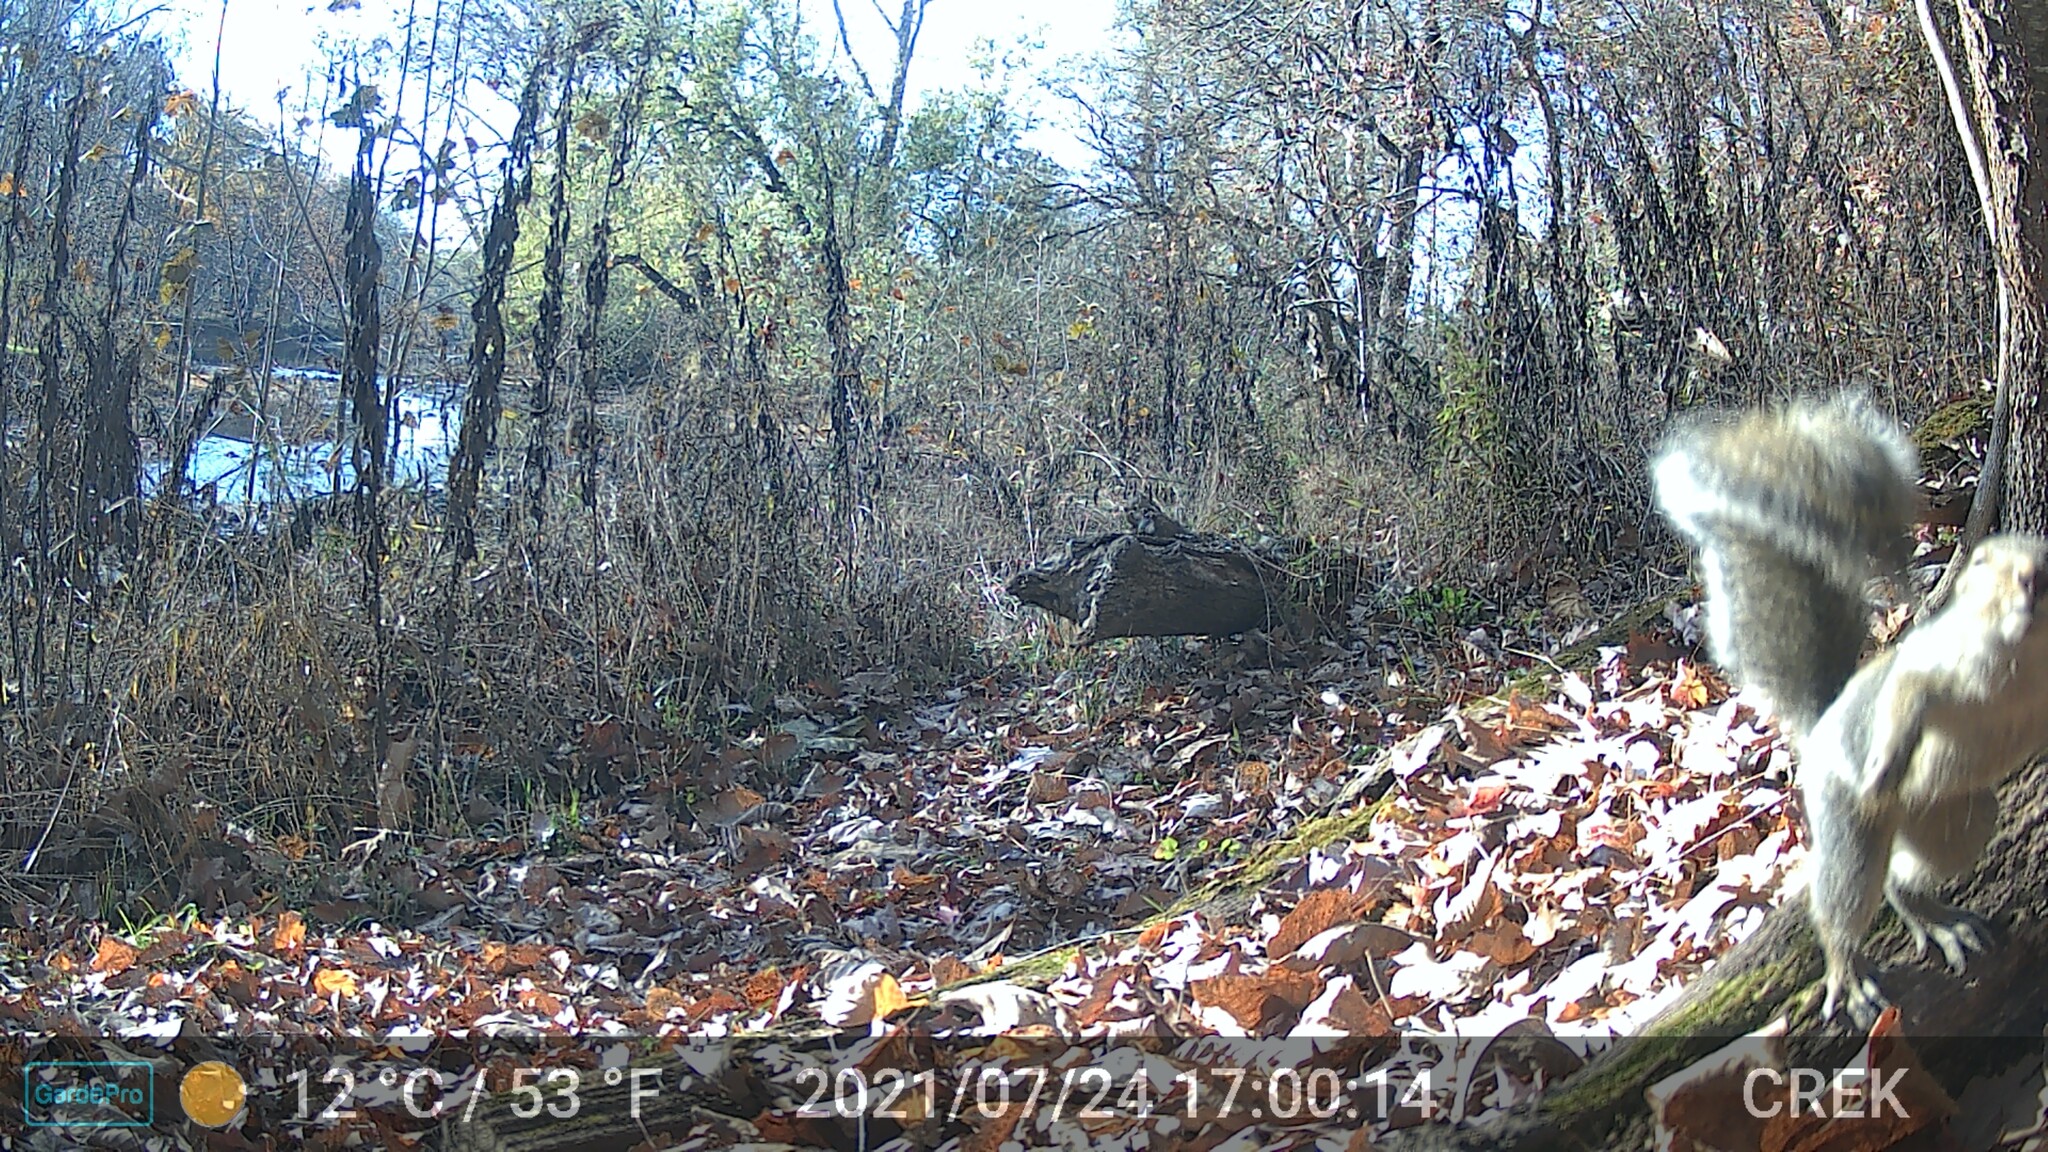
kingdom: Animalia
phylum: Chordata
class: Mammalia
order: Rodentia
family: Sciuridae
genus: Sciurus
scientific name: Sciurus carolinensis
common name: Eastern gray squirrel
